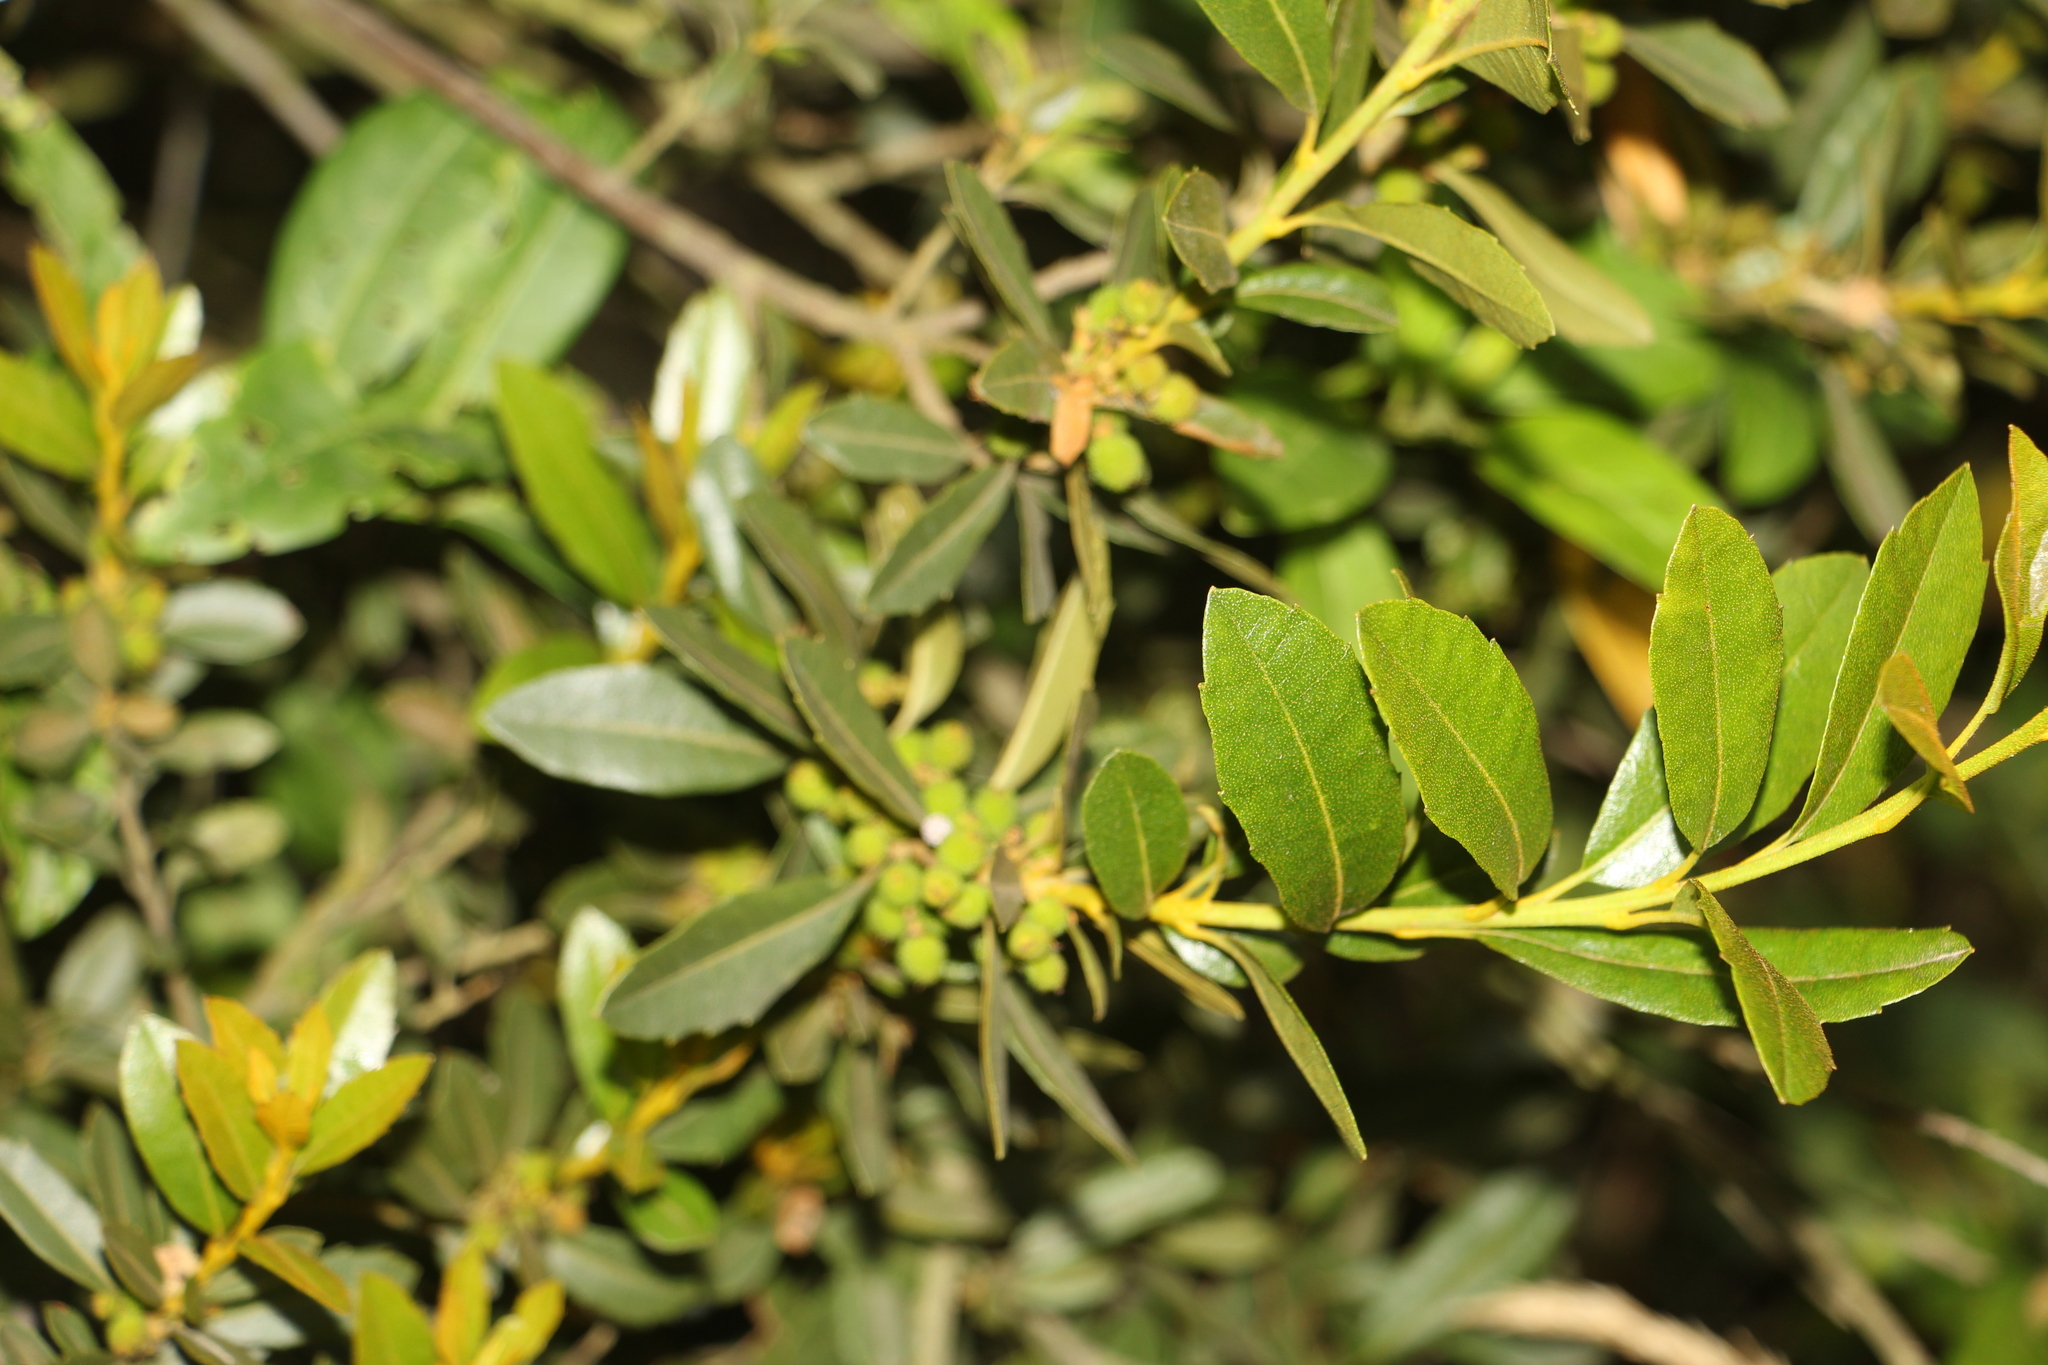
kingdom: Plantae
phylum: Tracheophyta
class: Magnoliopsida
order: Fagales
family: Myricaceae
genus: Morella
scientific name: Morella parvifolia
